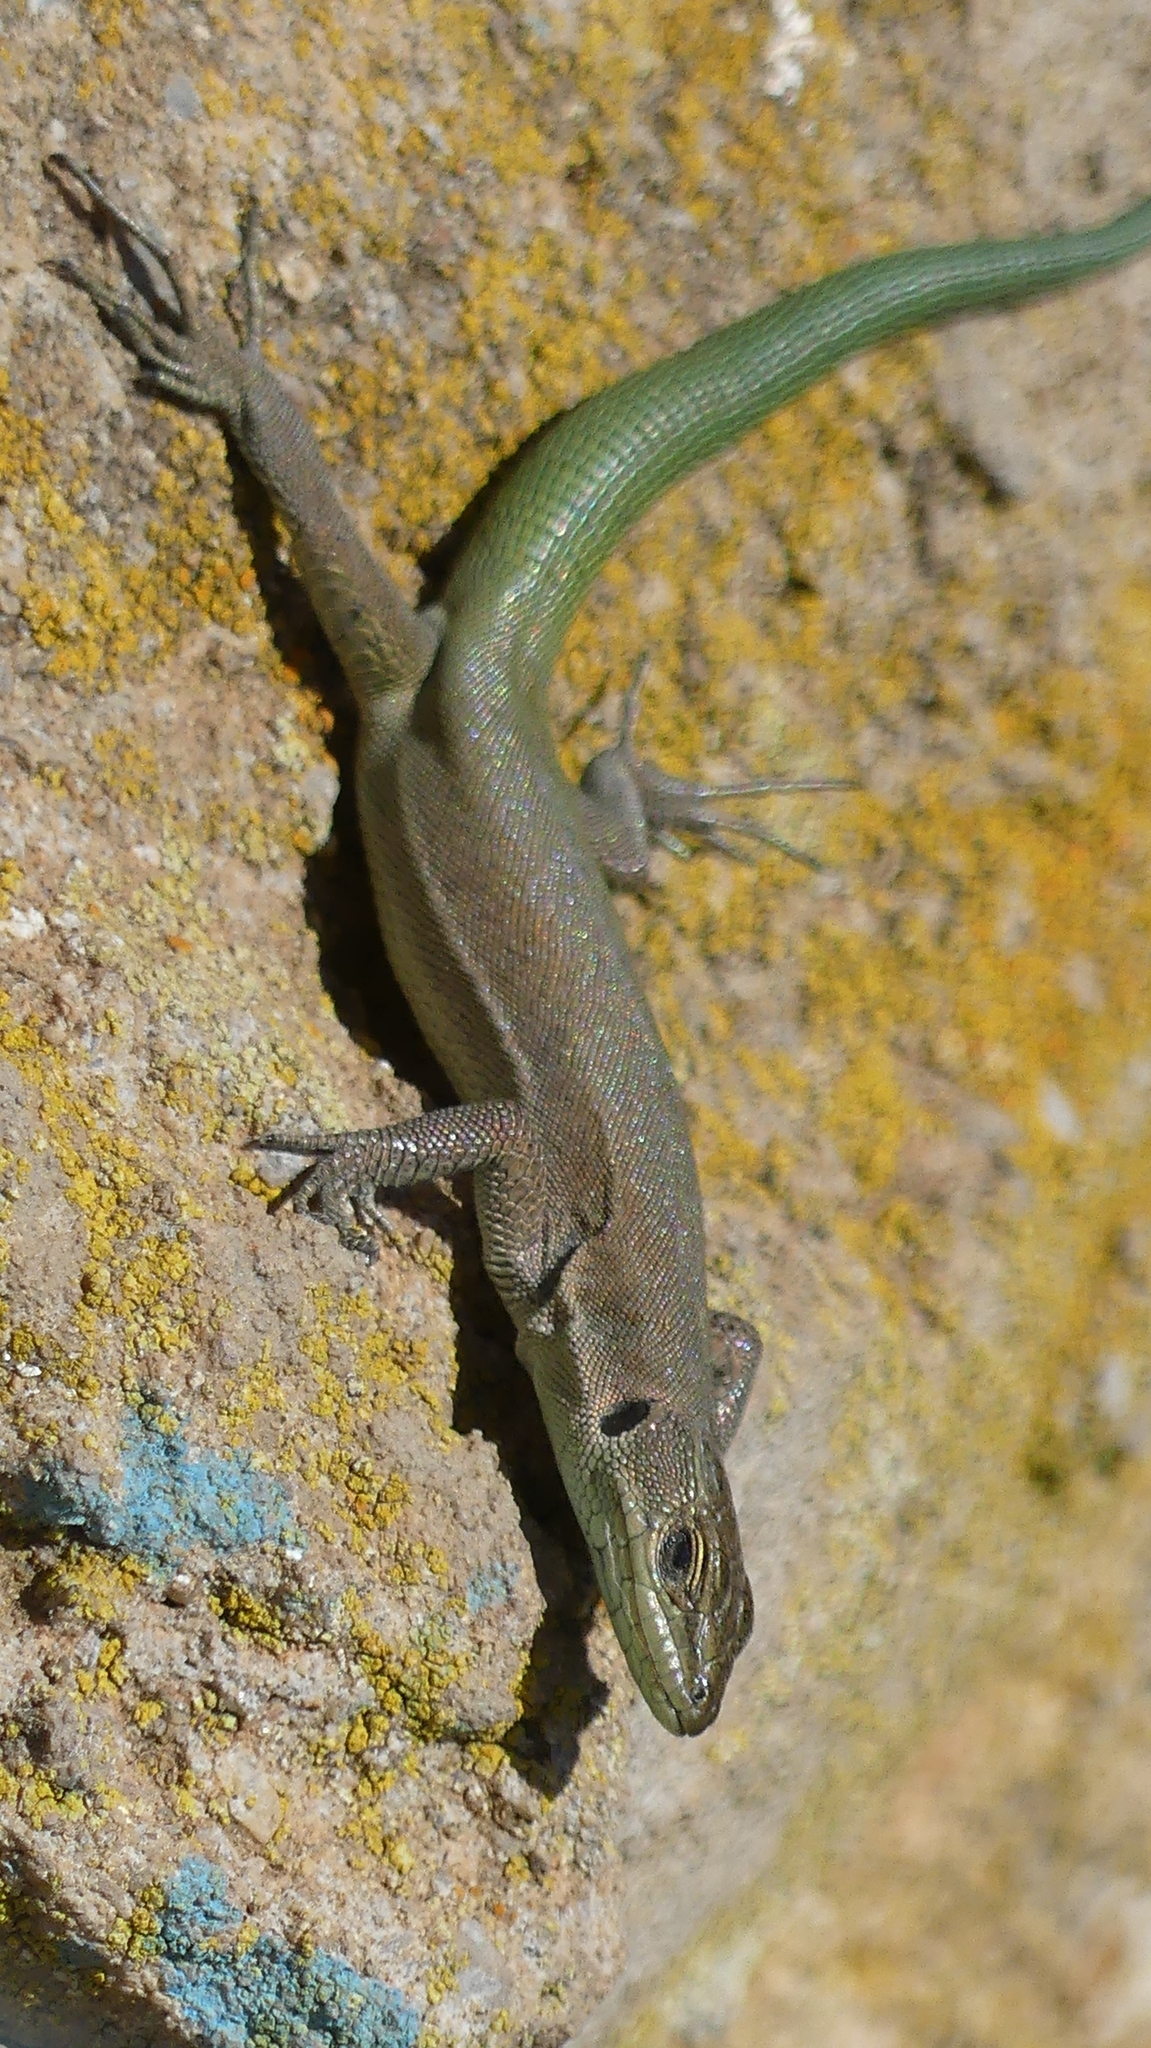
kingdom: Animalia
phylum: Chordata
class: Squamata
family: Lacertidae
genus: Podarcis
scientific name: Podarcis vaucheri
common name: Vaucher's wall lizard
